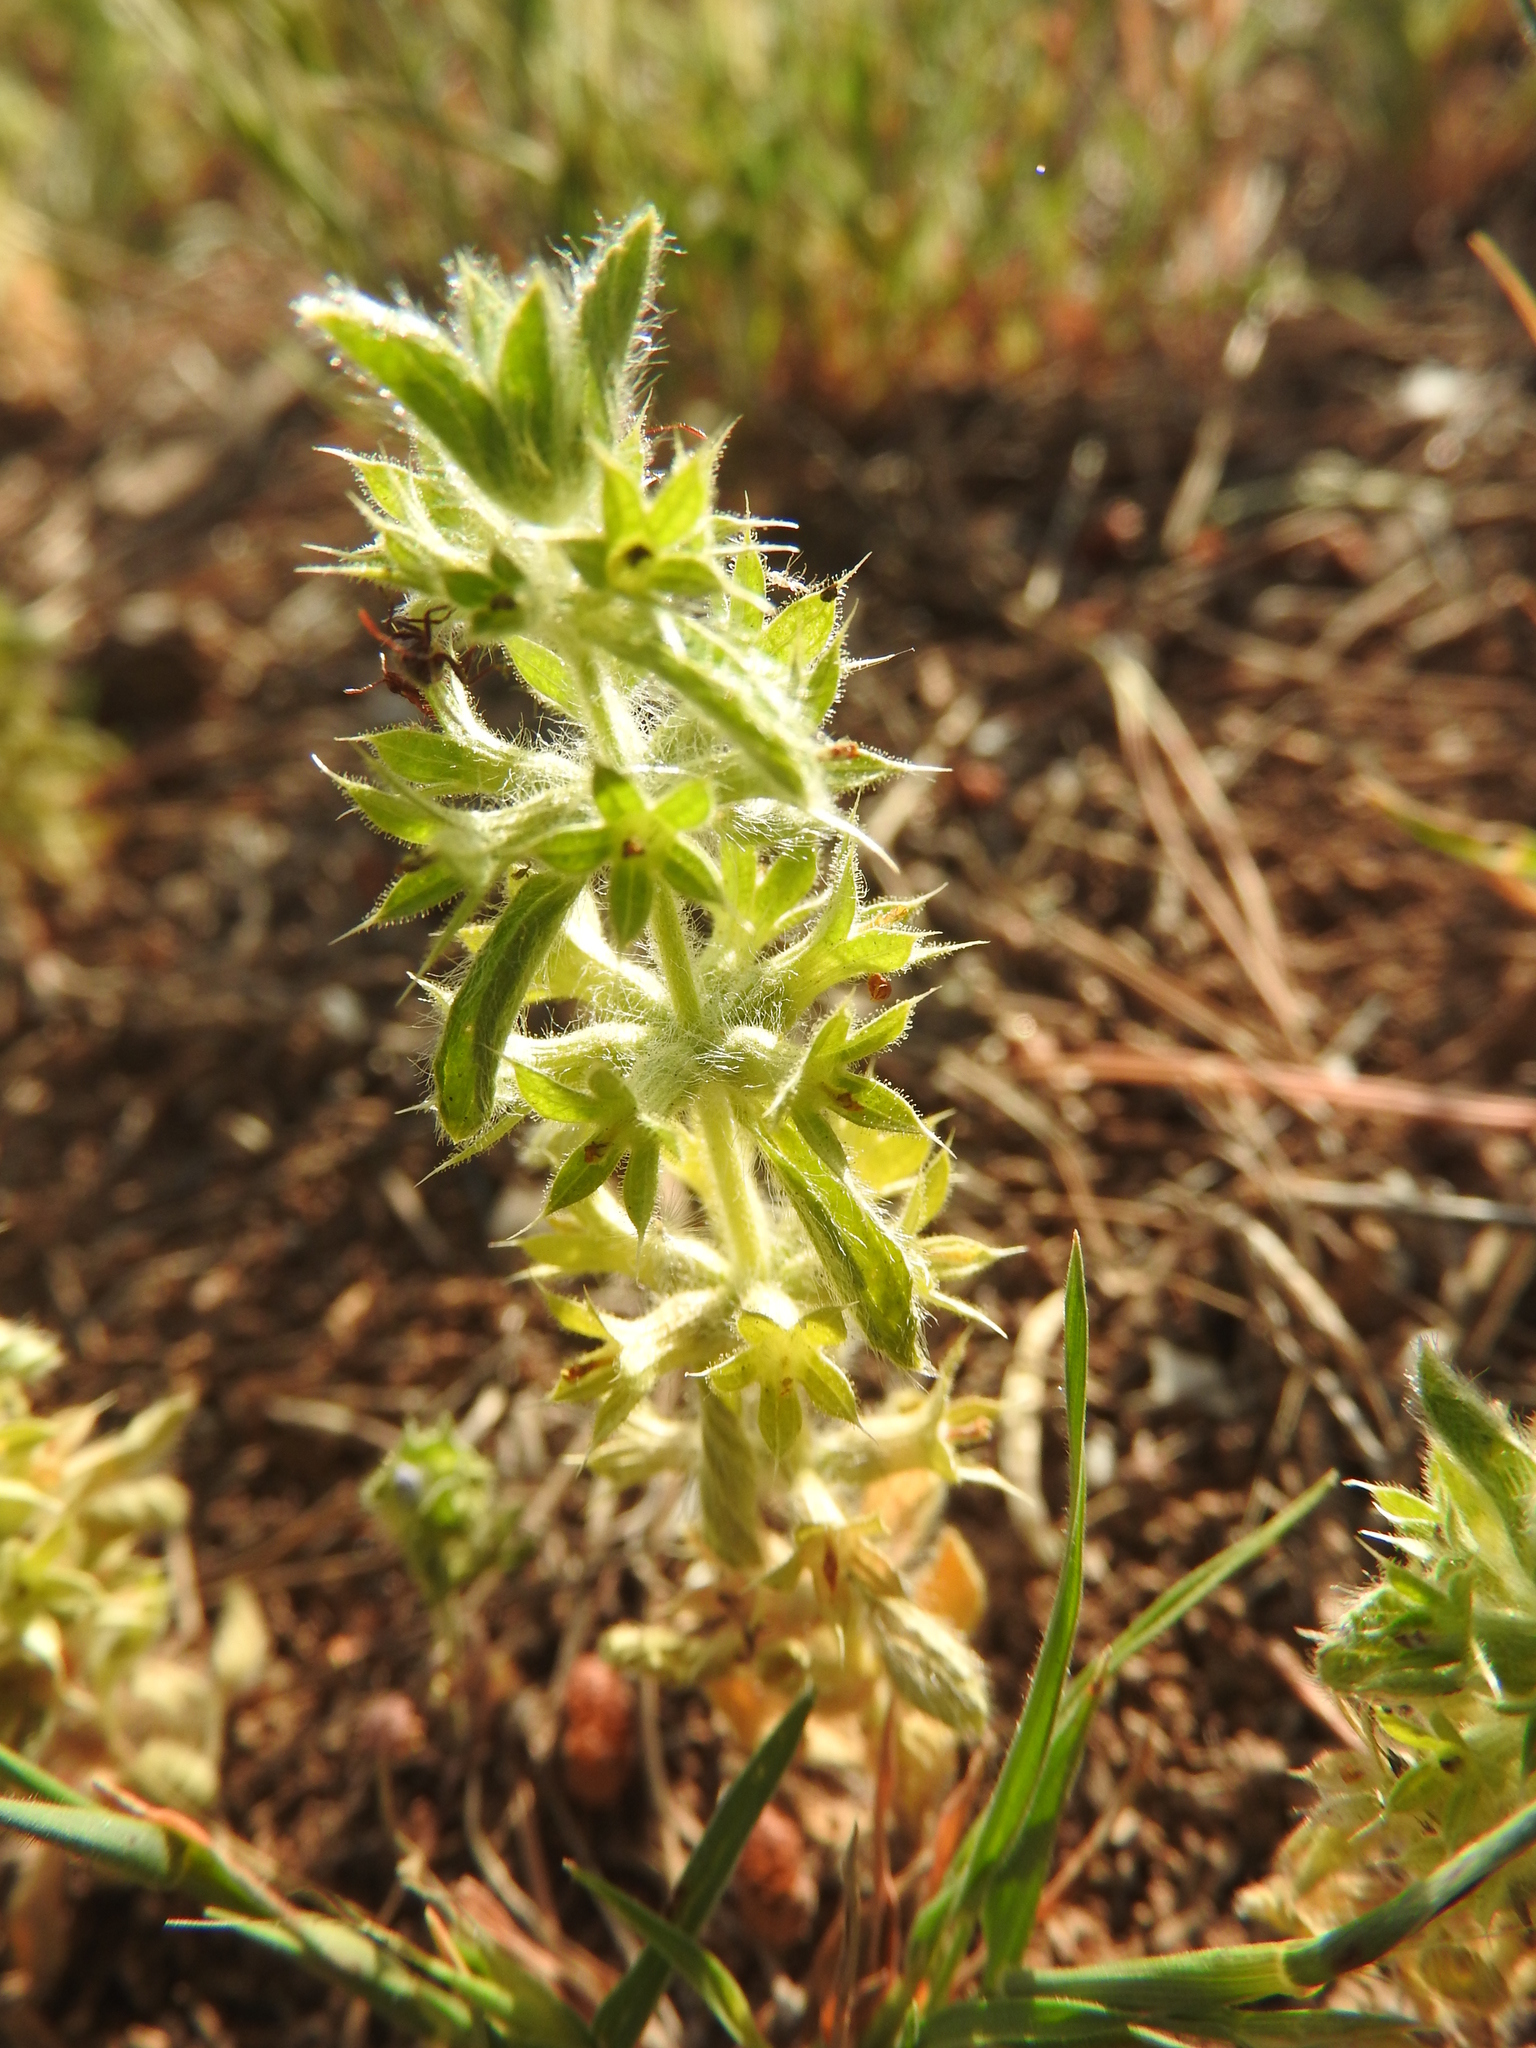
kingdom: Plantae
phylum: Tracheophyta
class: Magnoliopsida
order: Lamiales
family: Lamiaceae
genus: Sideritis
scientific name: Sideritis montana
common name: Mountain ironwort
